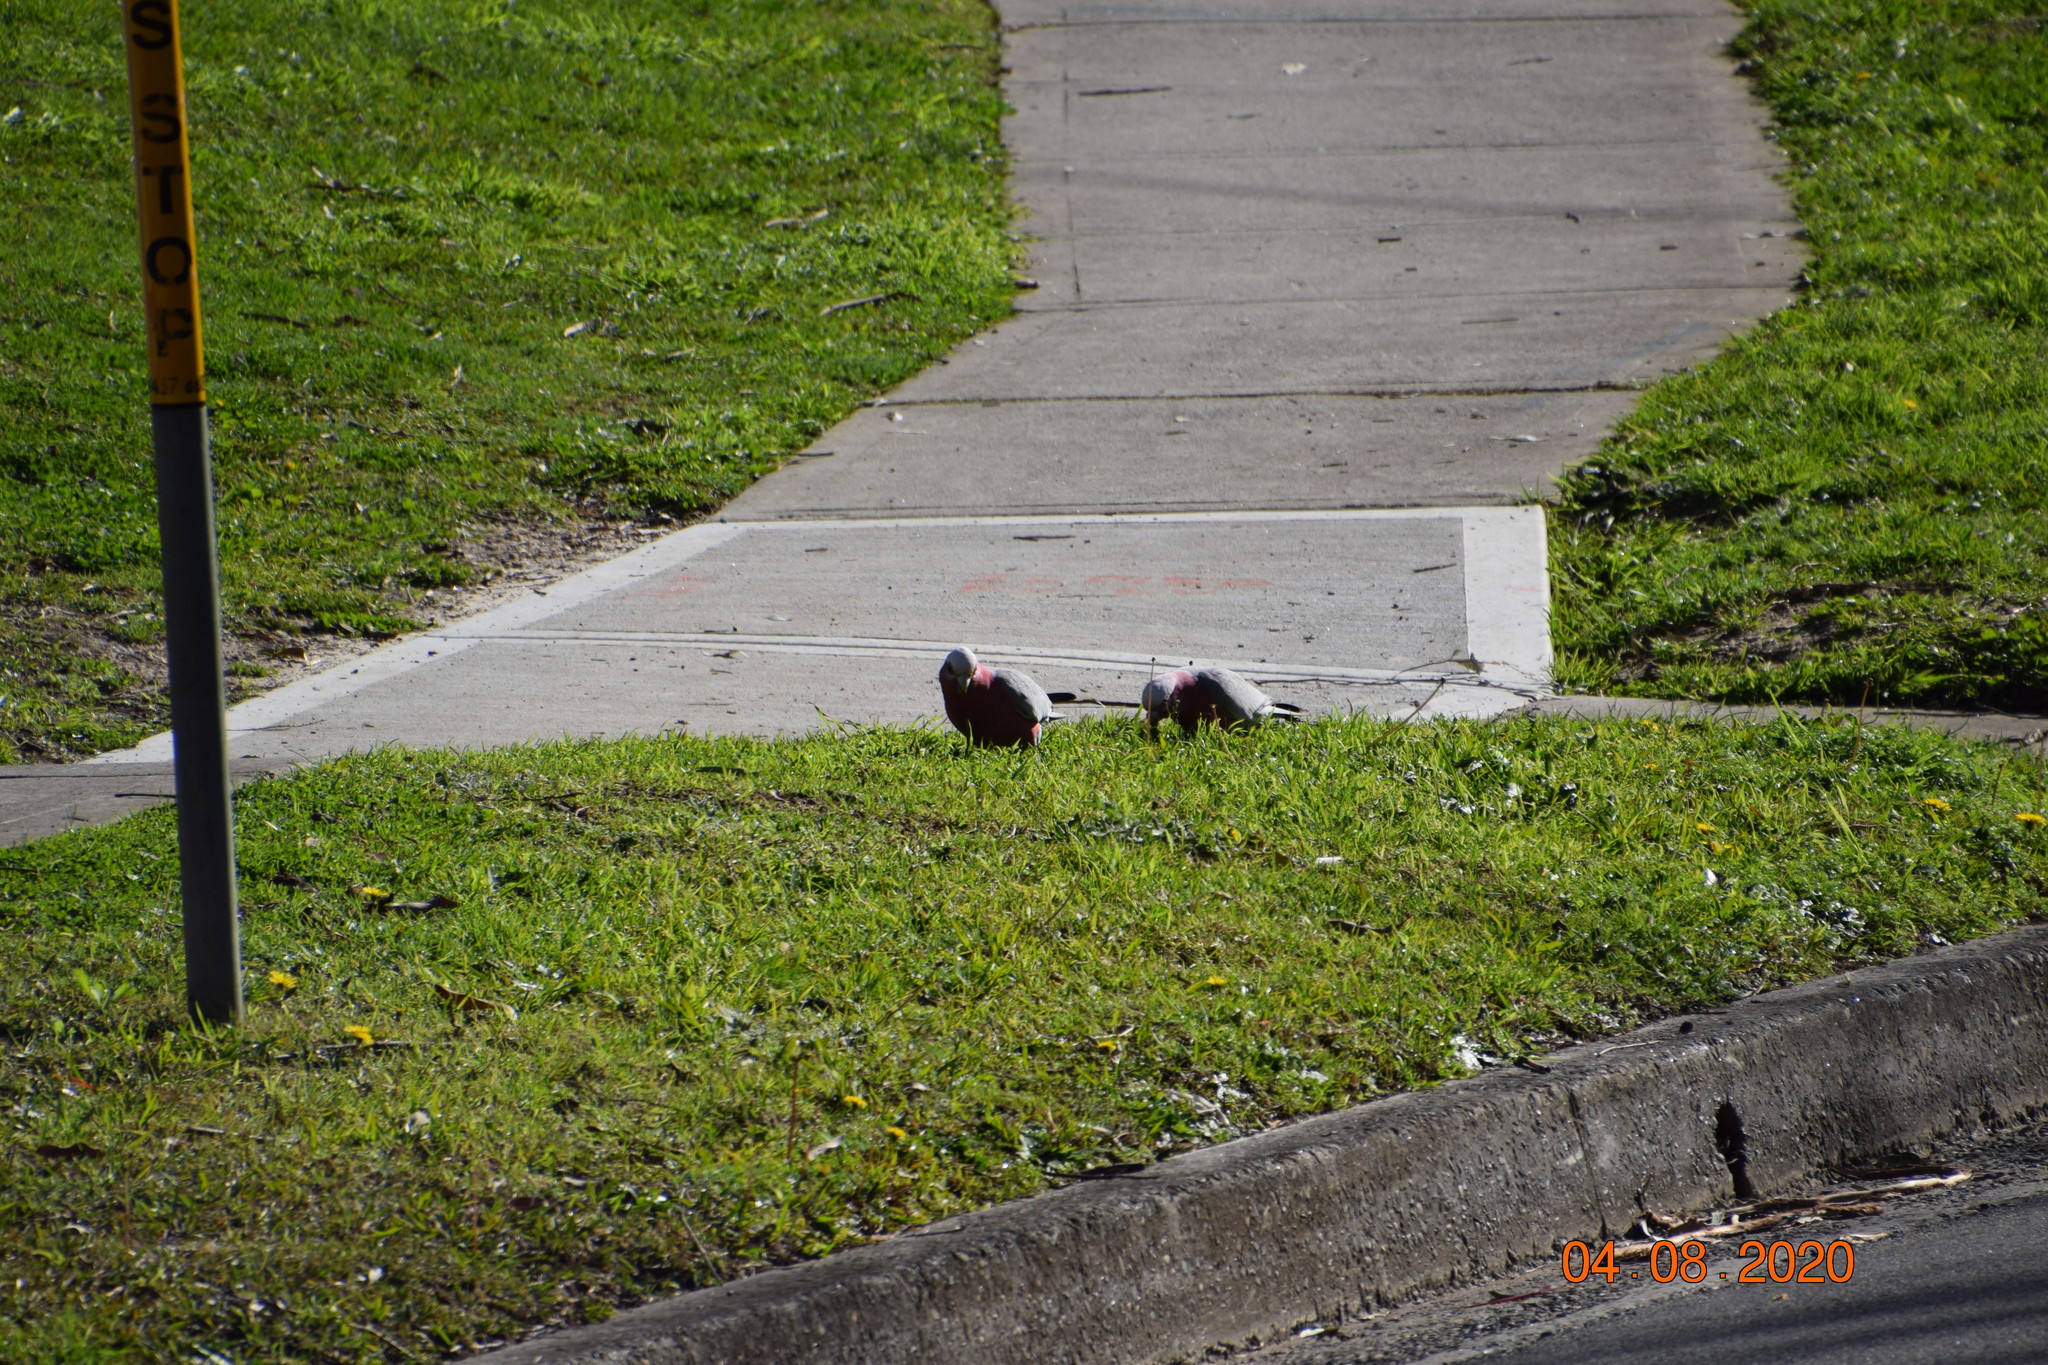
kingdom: Animalia
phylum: Chordata
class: Aves
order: Psittaciformes
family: Psittacidae
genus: Eolophus
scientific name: Eolophus roseicapilla
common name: Galah
